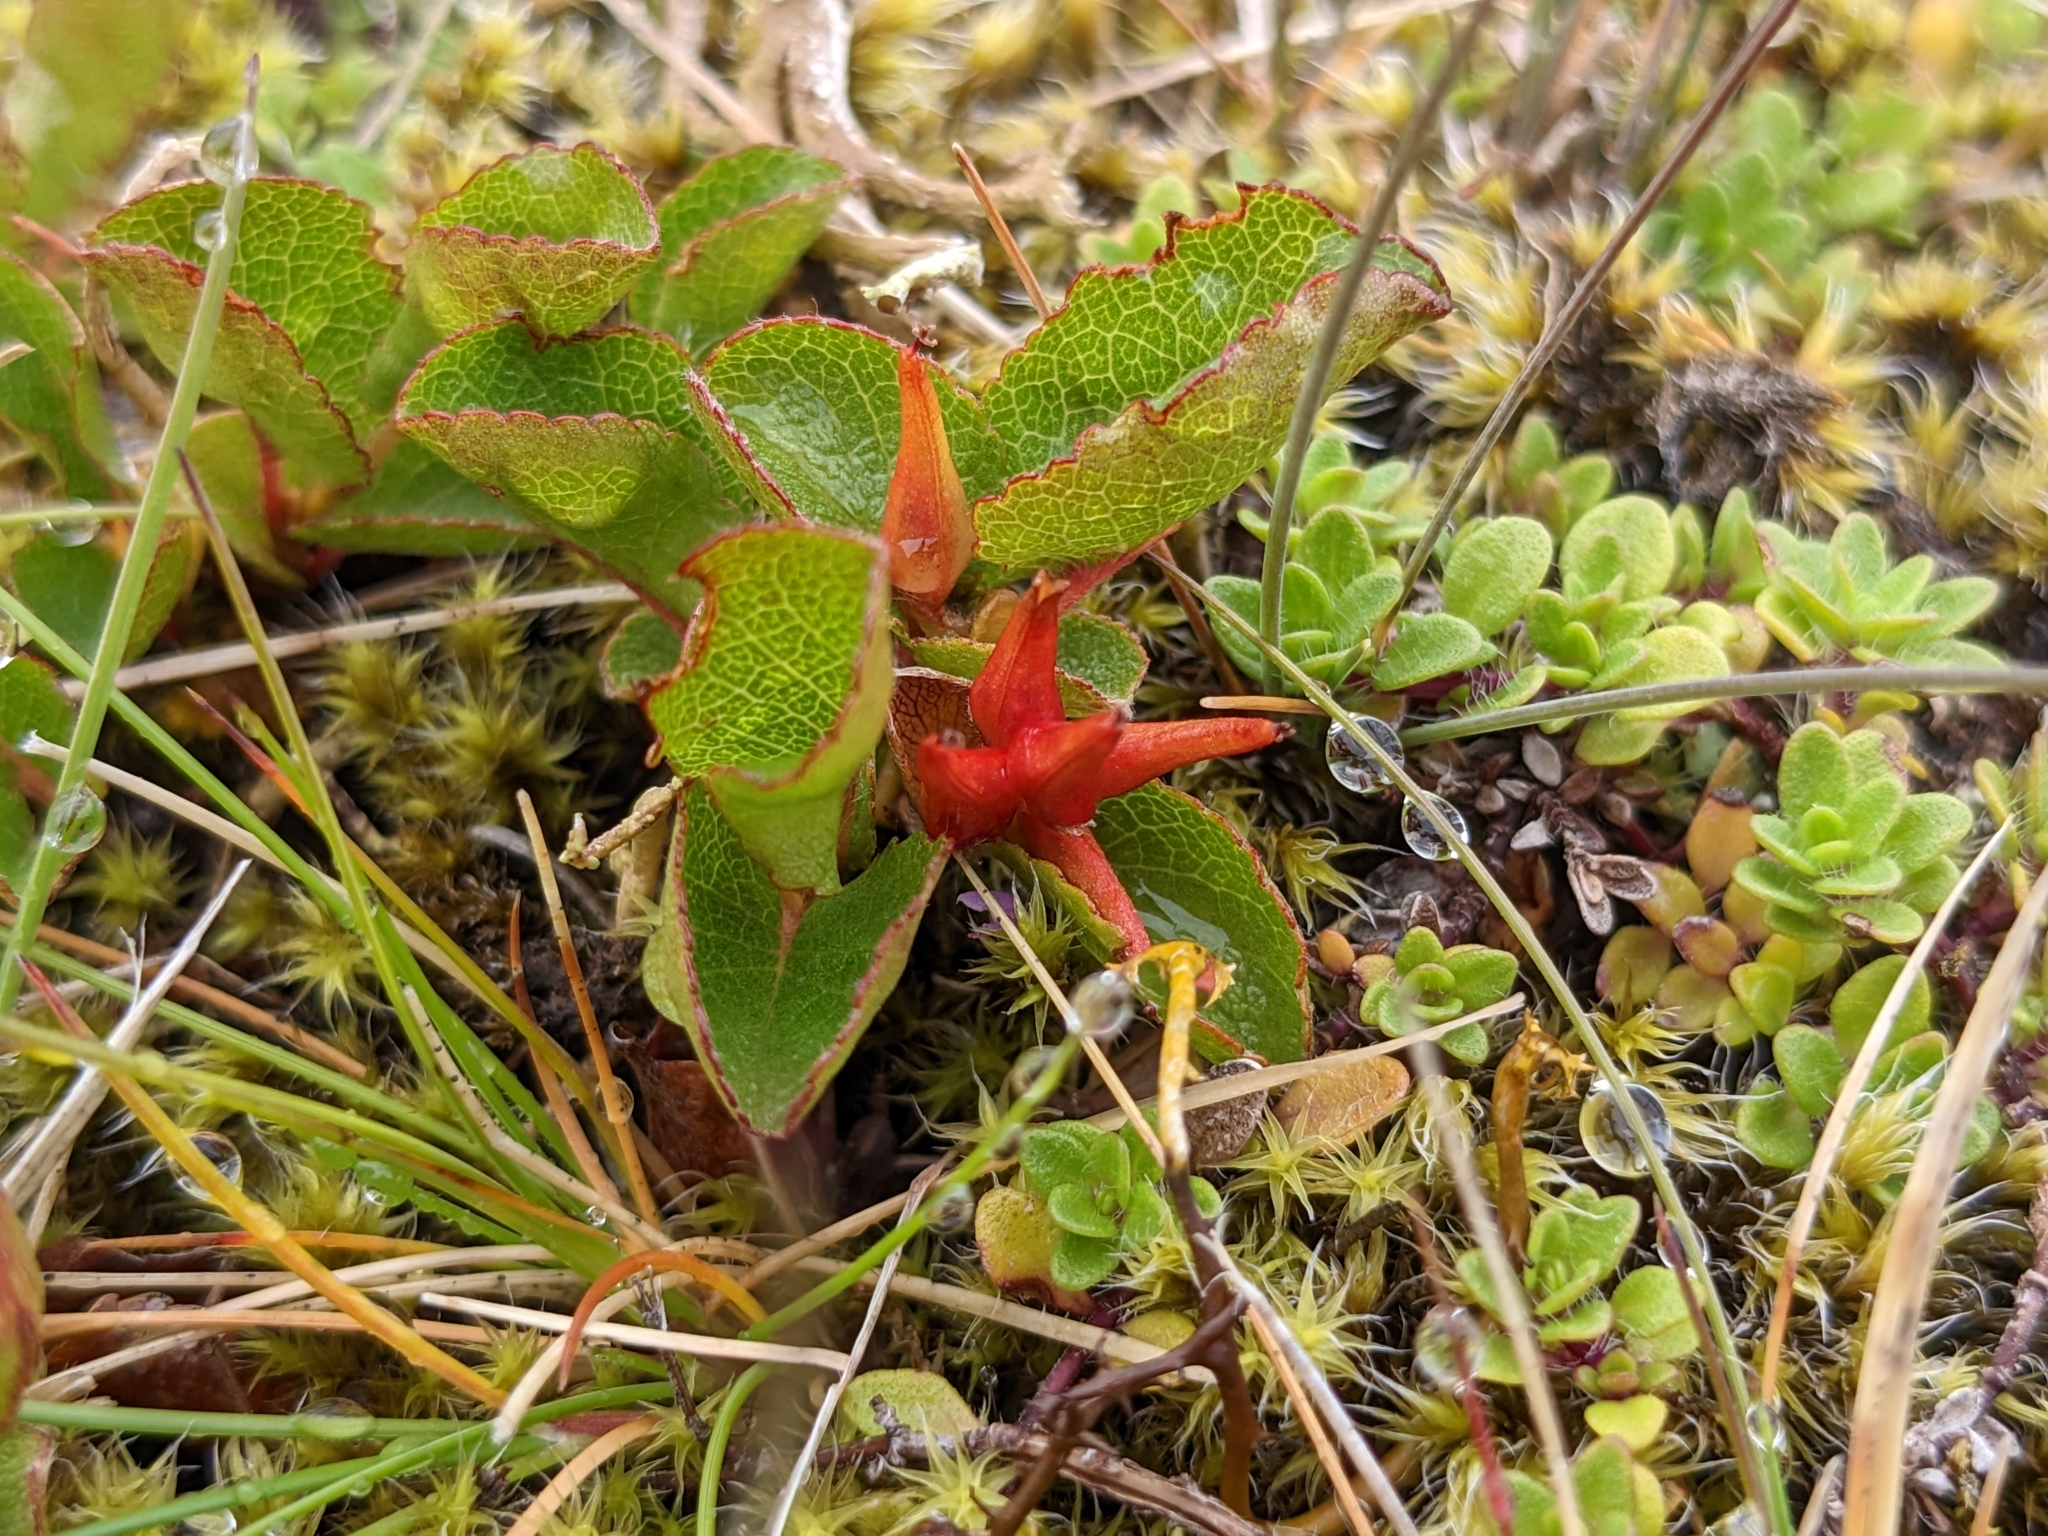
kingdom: Plantae
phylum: Tracheophyta
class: Magnoliopsida
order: Malpighiales
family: Salicaceae
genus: Salix
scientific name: Salix herbacea
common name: Dwarf willow
